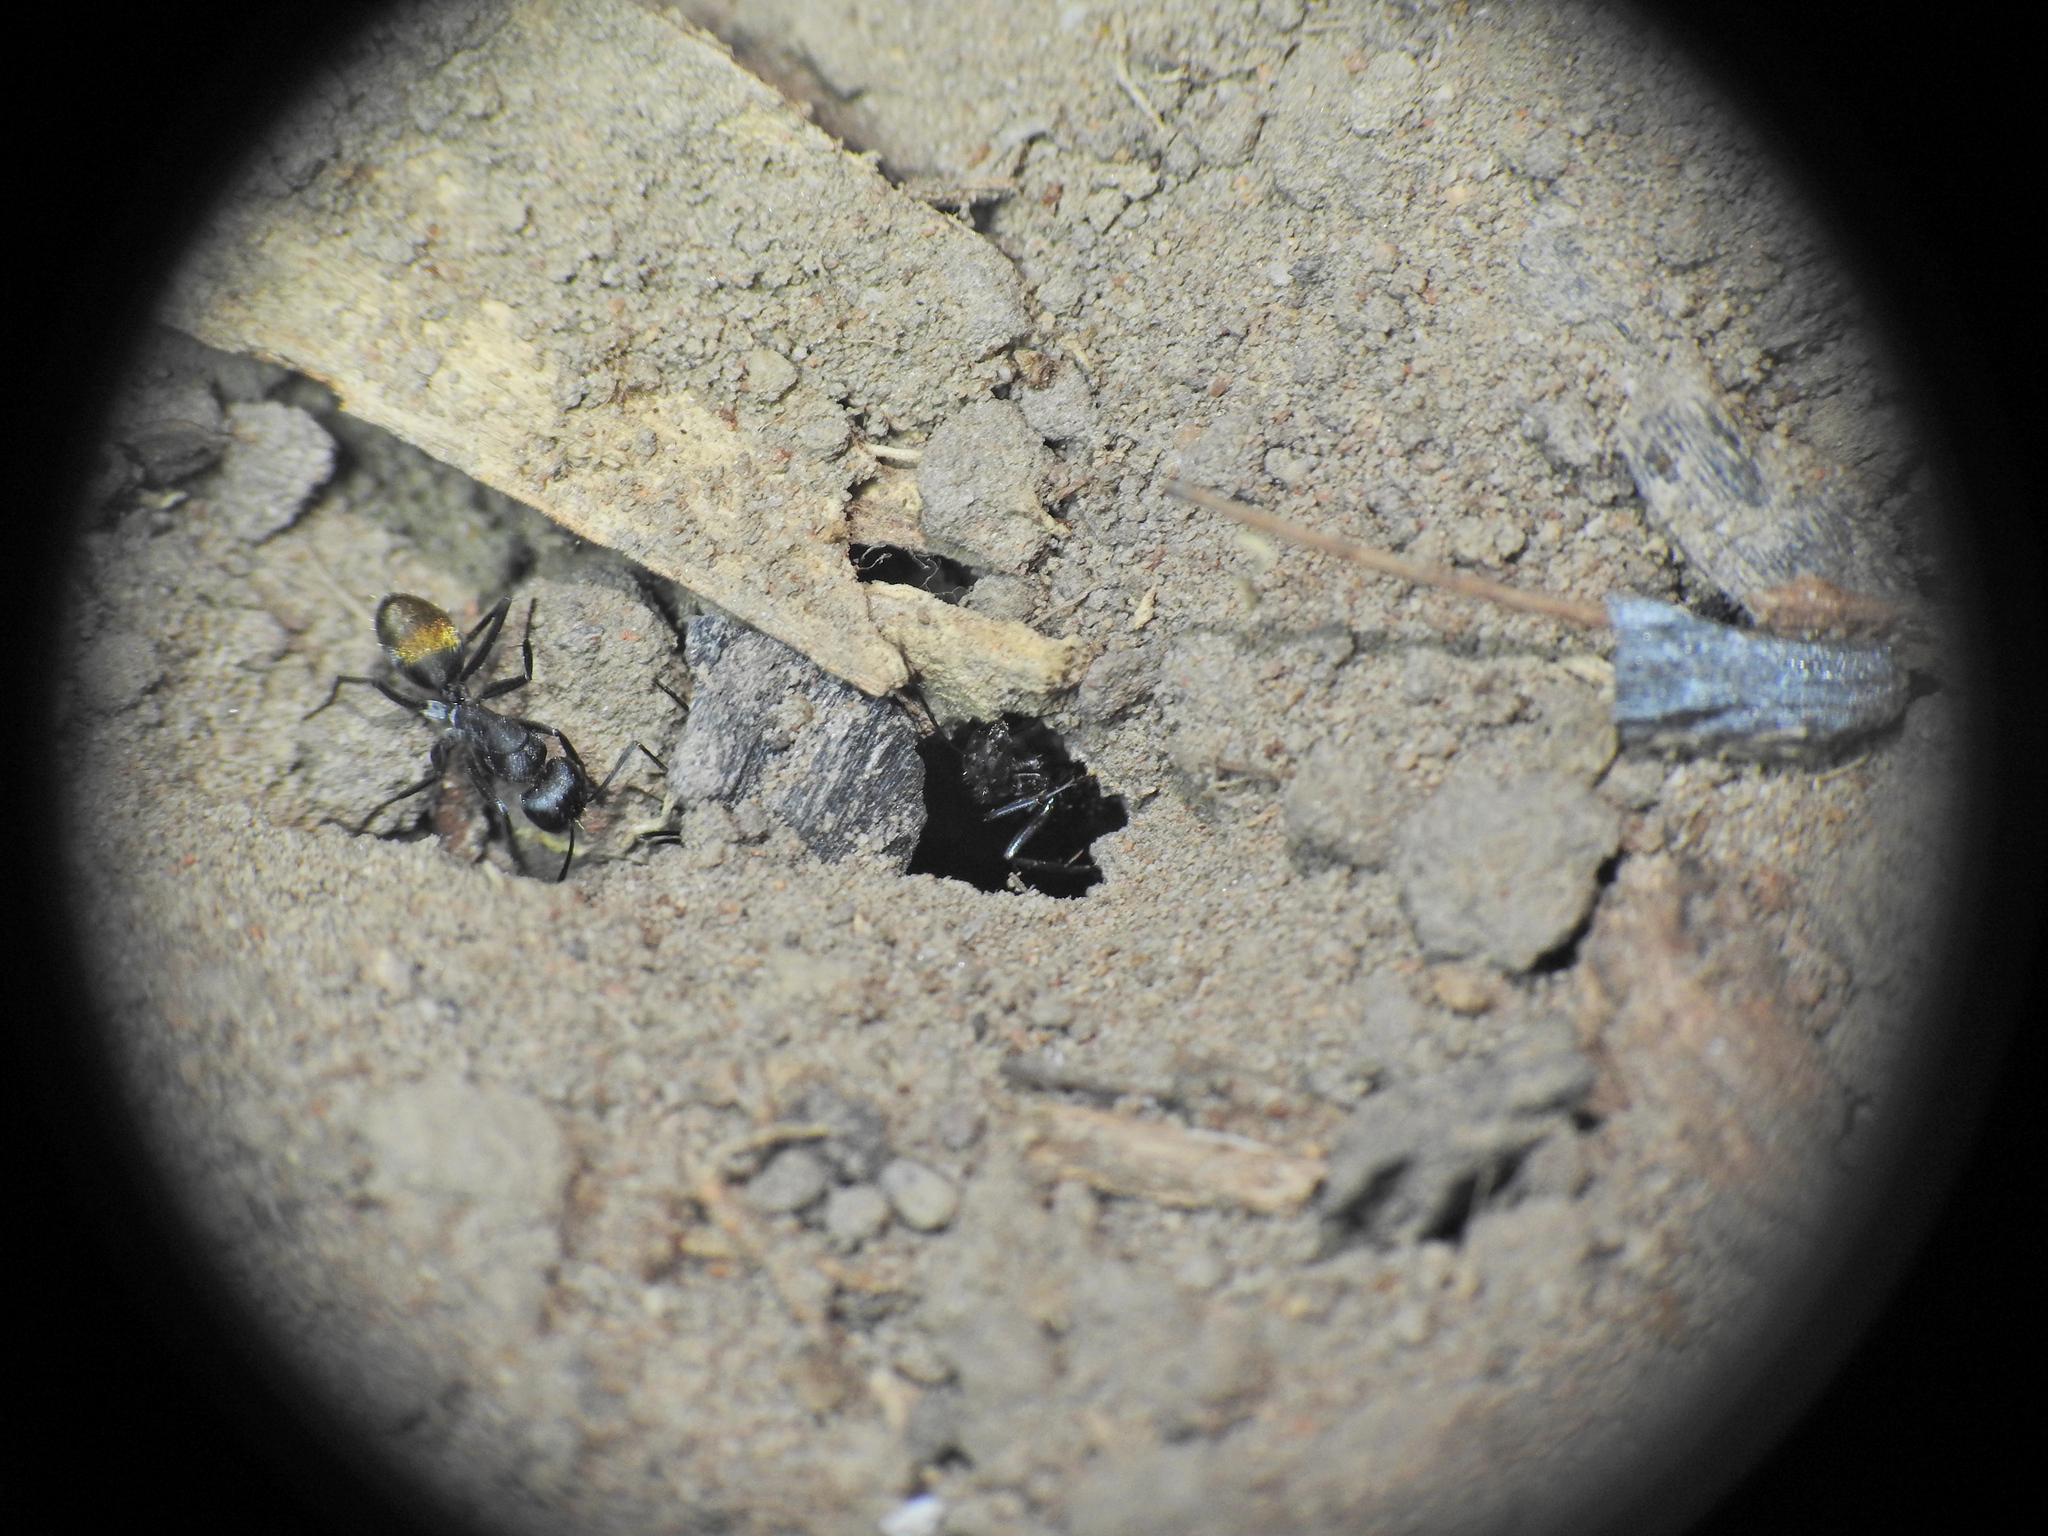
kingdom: Animalia
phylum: Arthropoda
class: Insecta
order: Hymenoptera
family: Formicidae
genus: Camponotus
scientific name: Camponotus aeneopilosus
